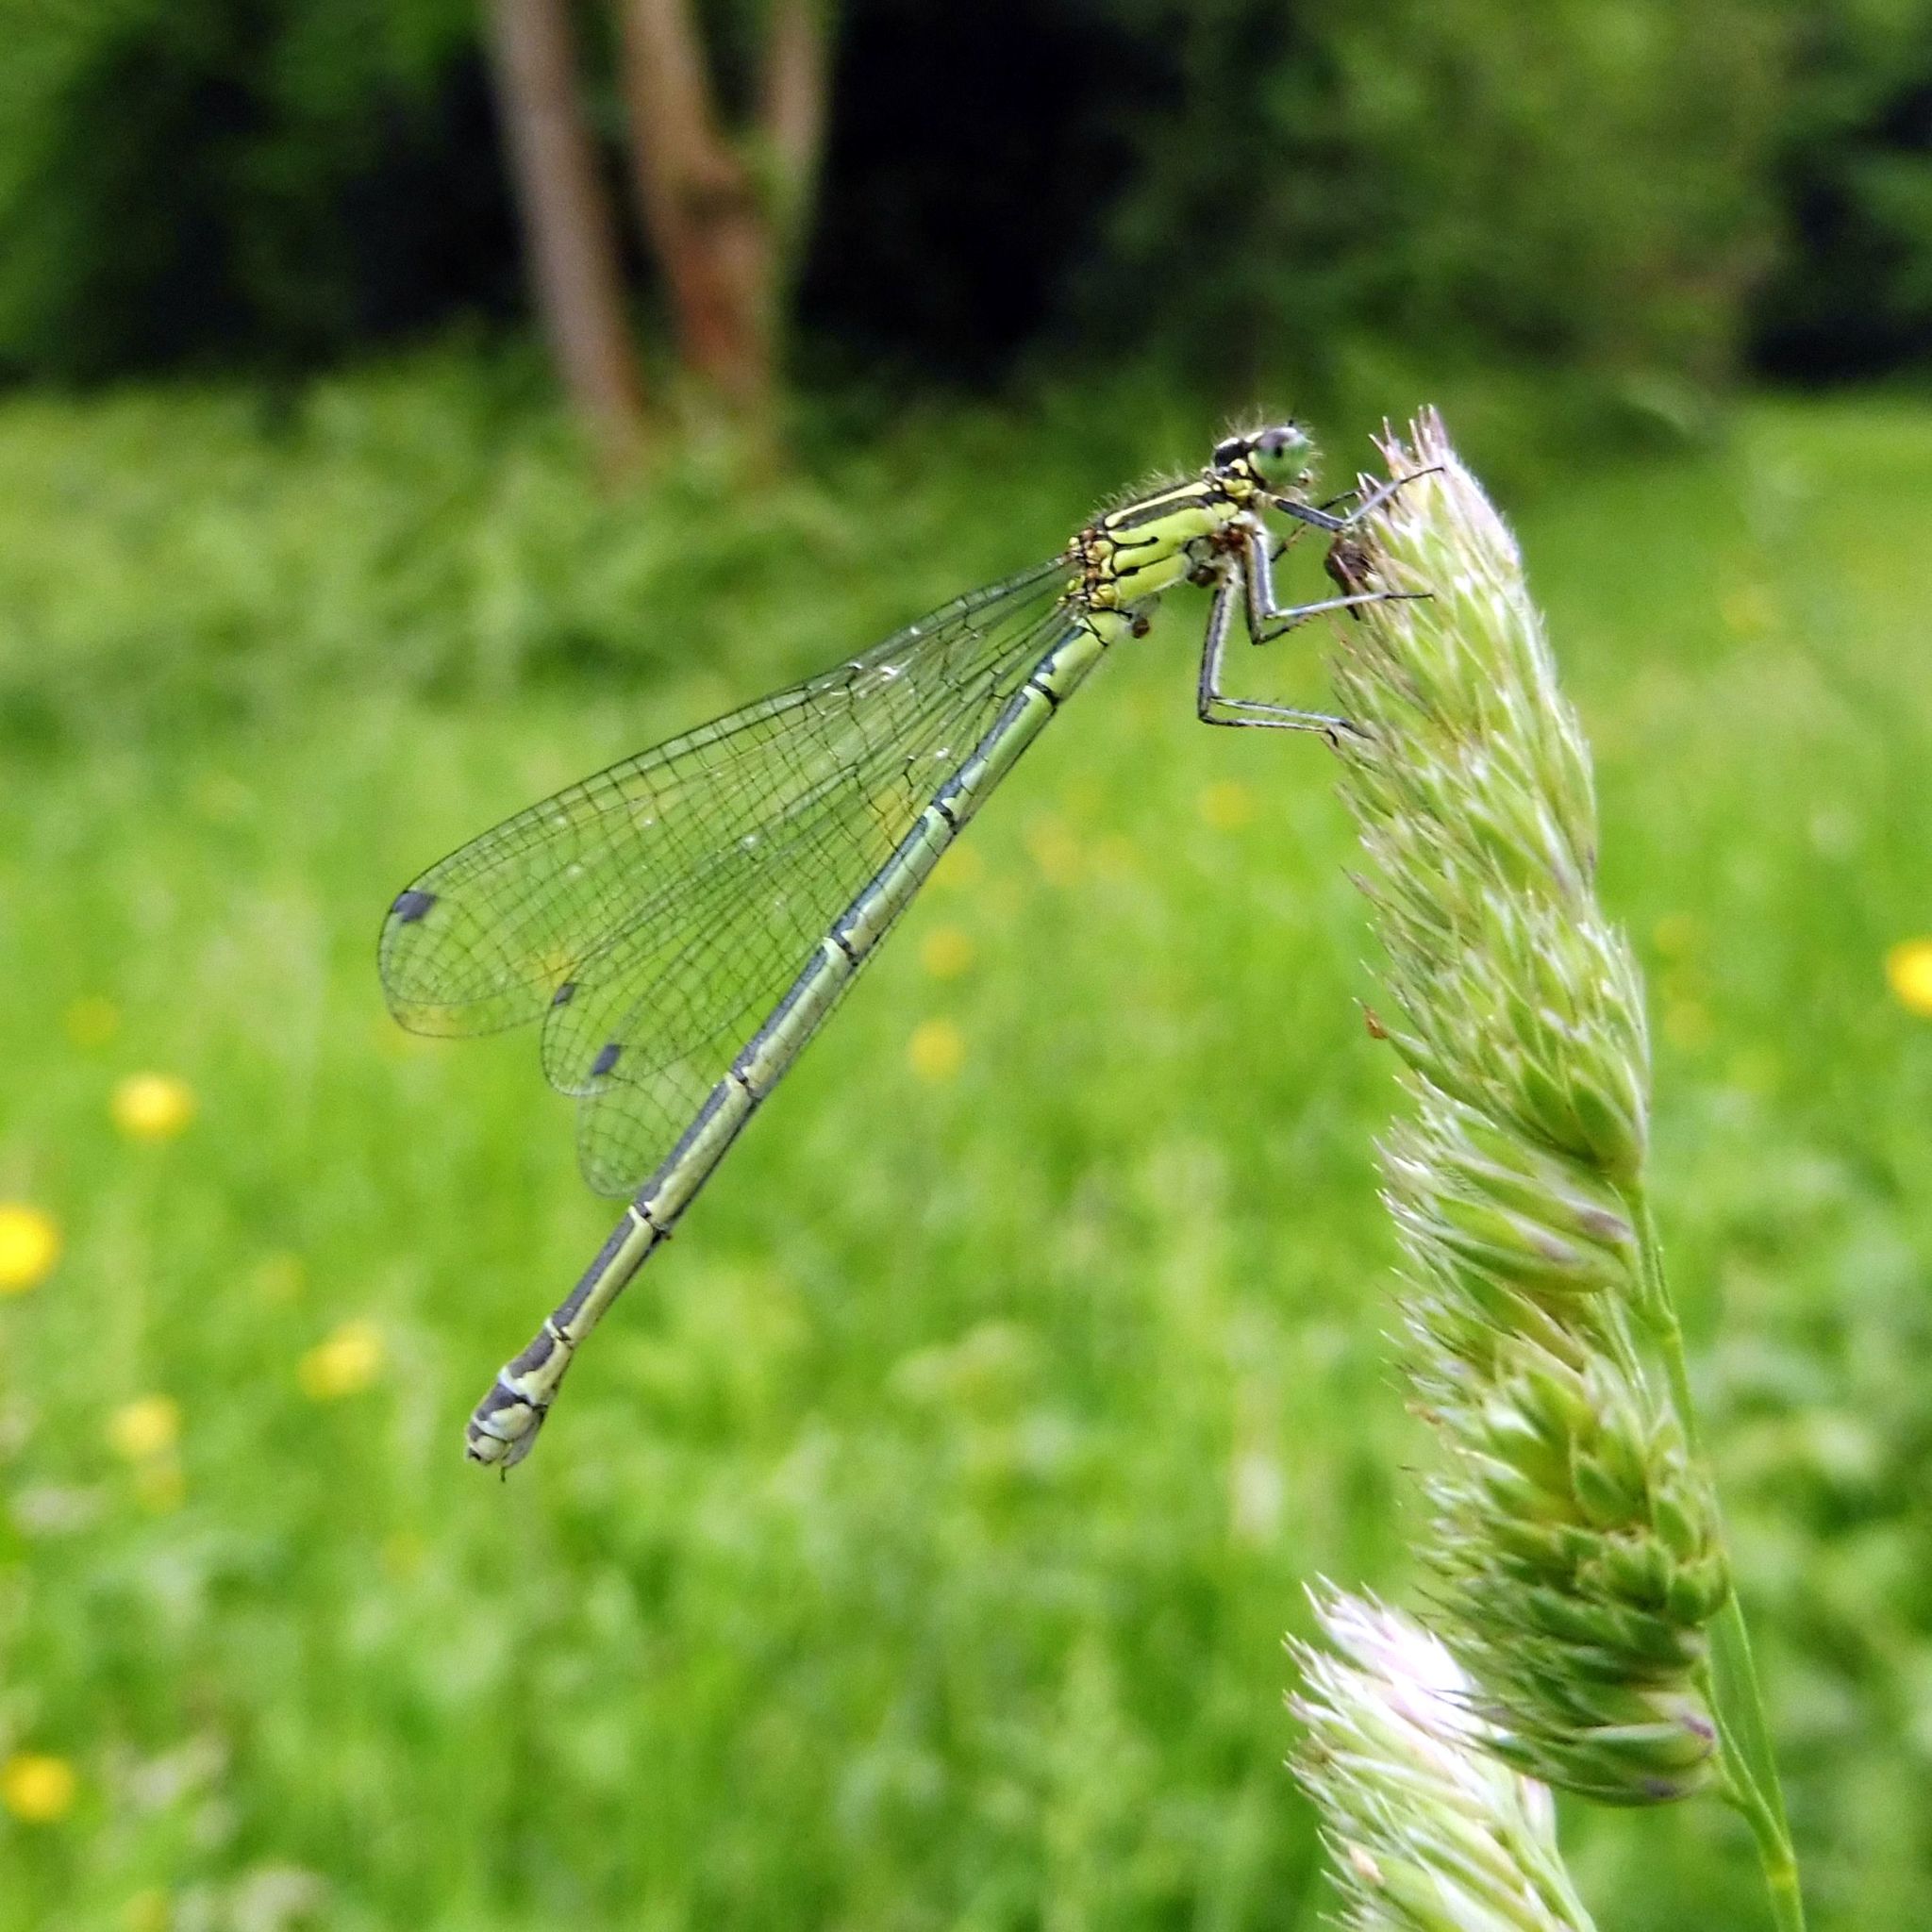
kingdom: Animalia
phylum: Arthropoda
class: Insecta
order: Odonata
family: Coenagrionidae
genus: Coenagrion
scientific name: Coenagrion puella
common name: Azure damselfly
